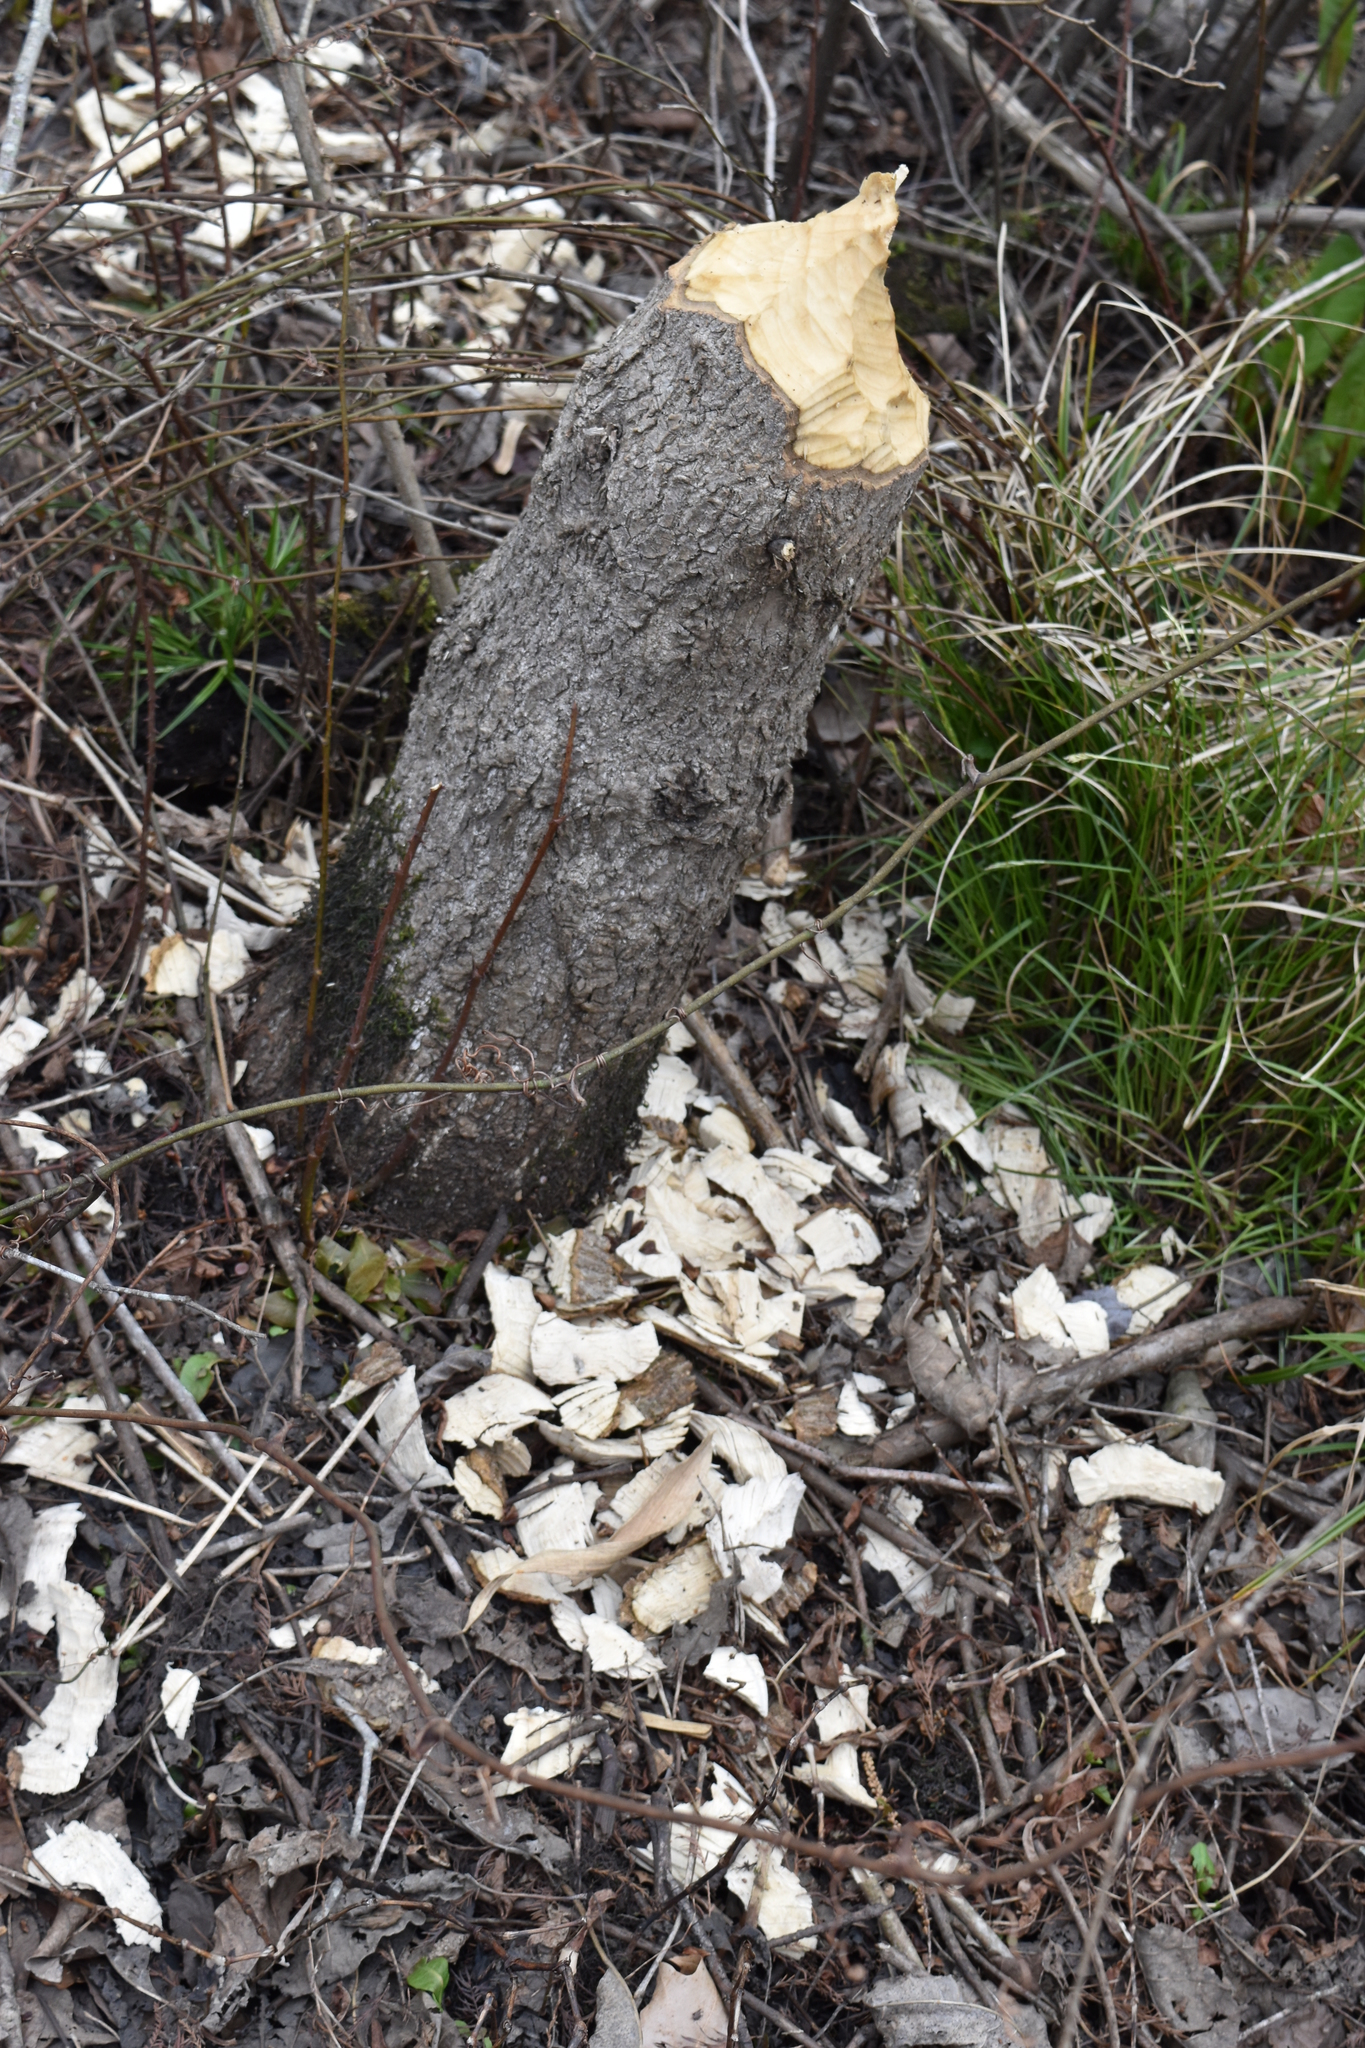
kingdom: Animalia
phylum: Chordata
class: Mammalia
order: Rodentia
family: Castoridae
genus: Castor
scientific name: Castor canadensis
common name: American beaver
